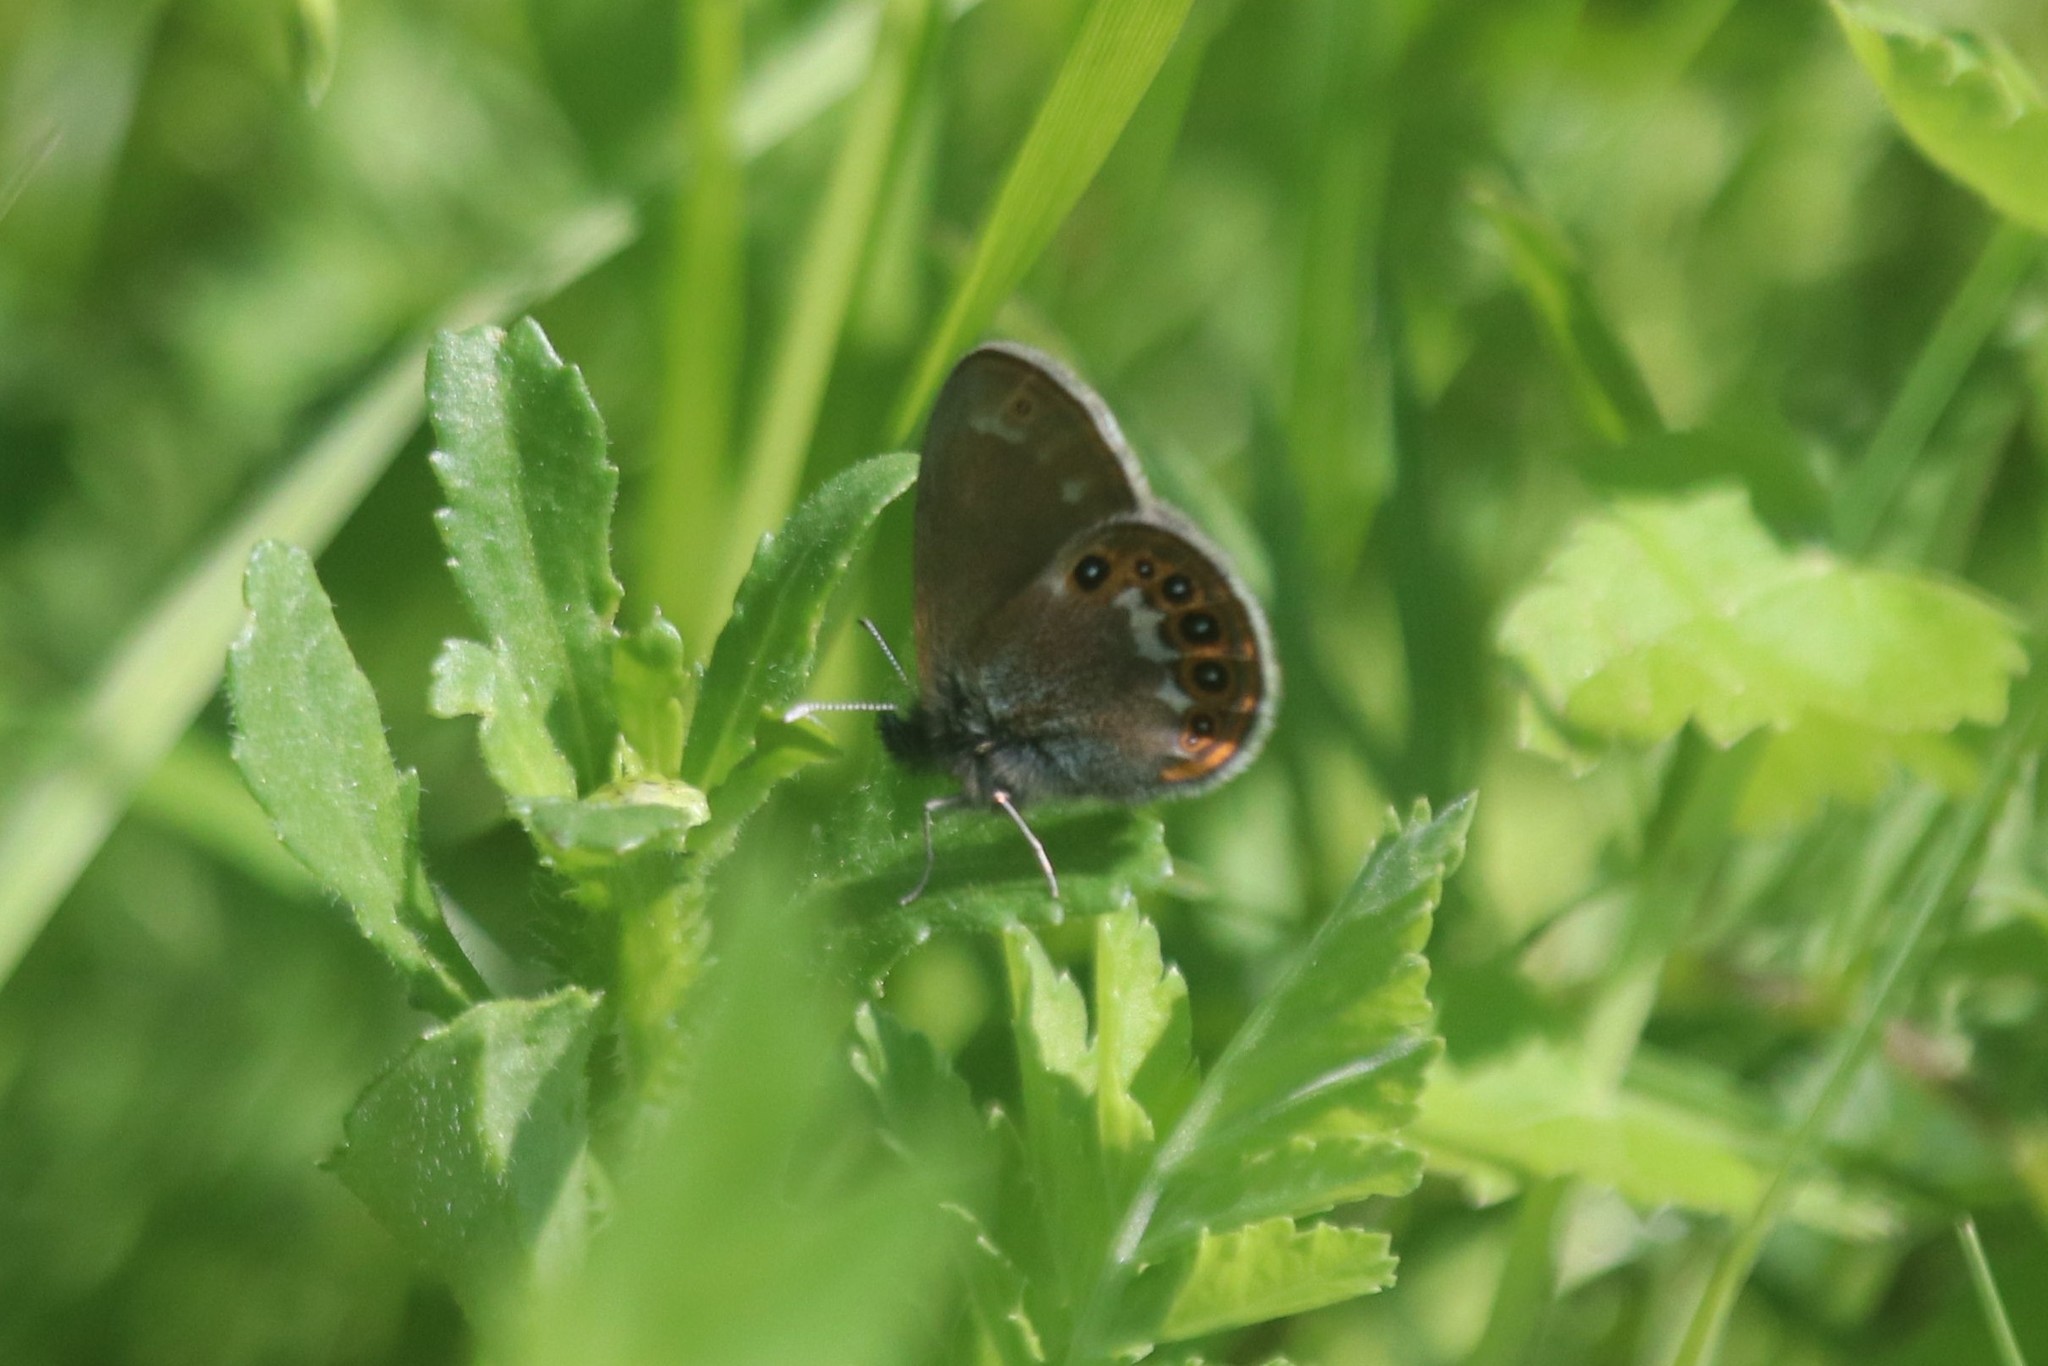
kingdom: Animalia
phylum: Arthropoda
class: Insecta
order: Lepidoptera
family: Nymphalidae
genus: Coenonympha
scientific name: Coenonympha hero
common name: Scarce heath
